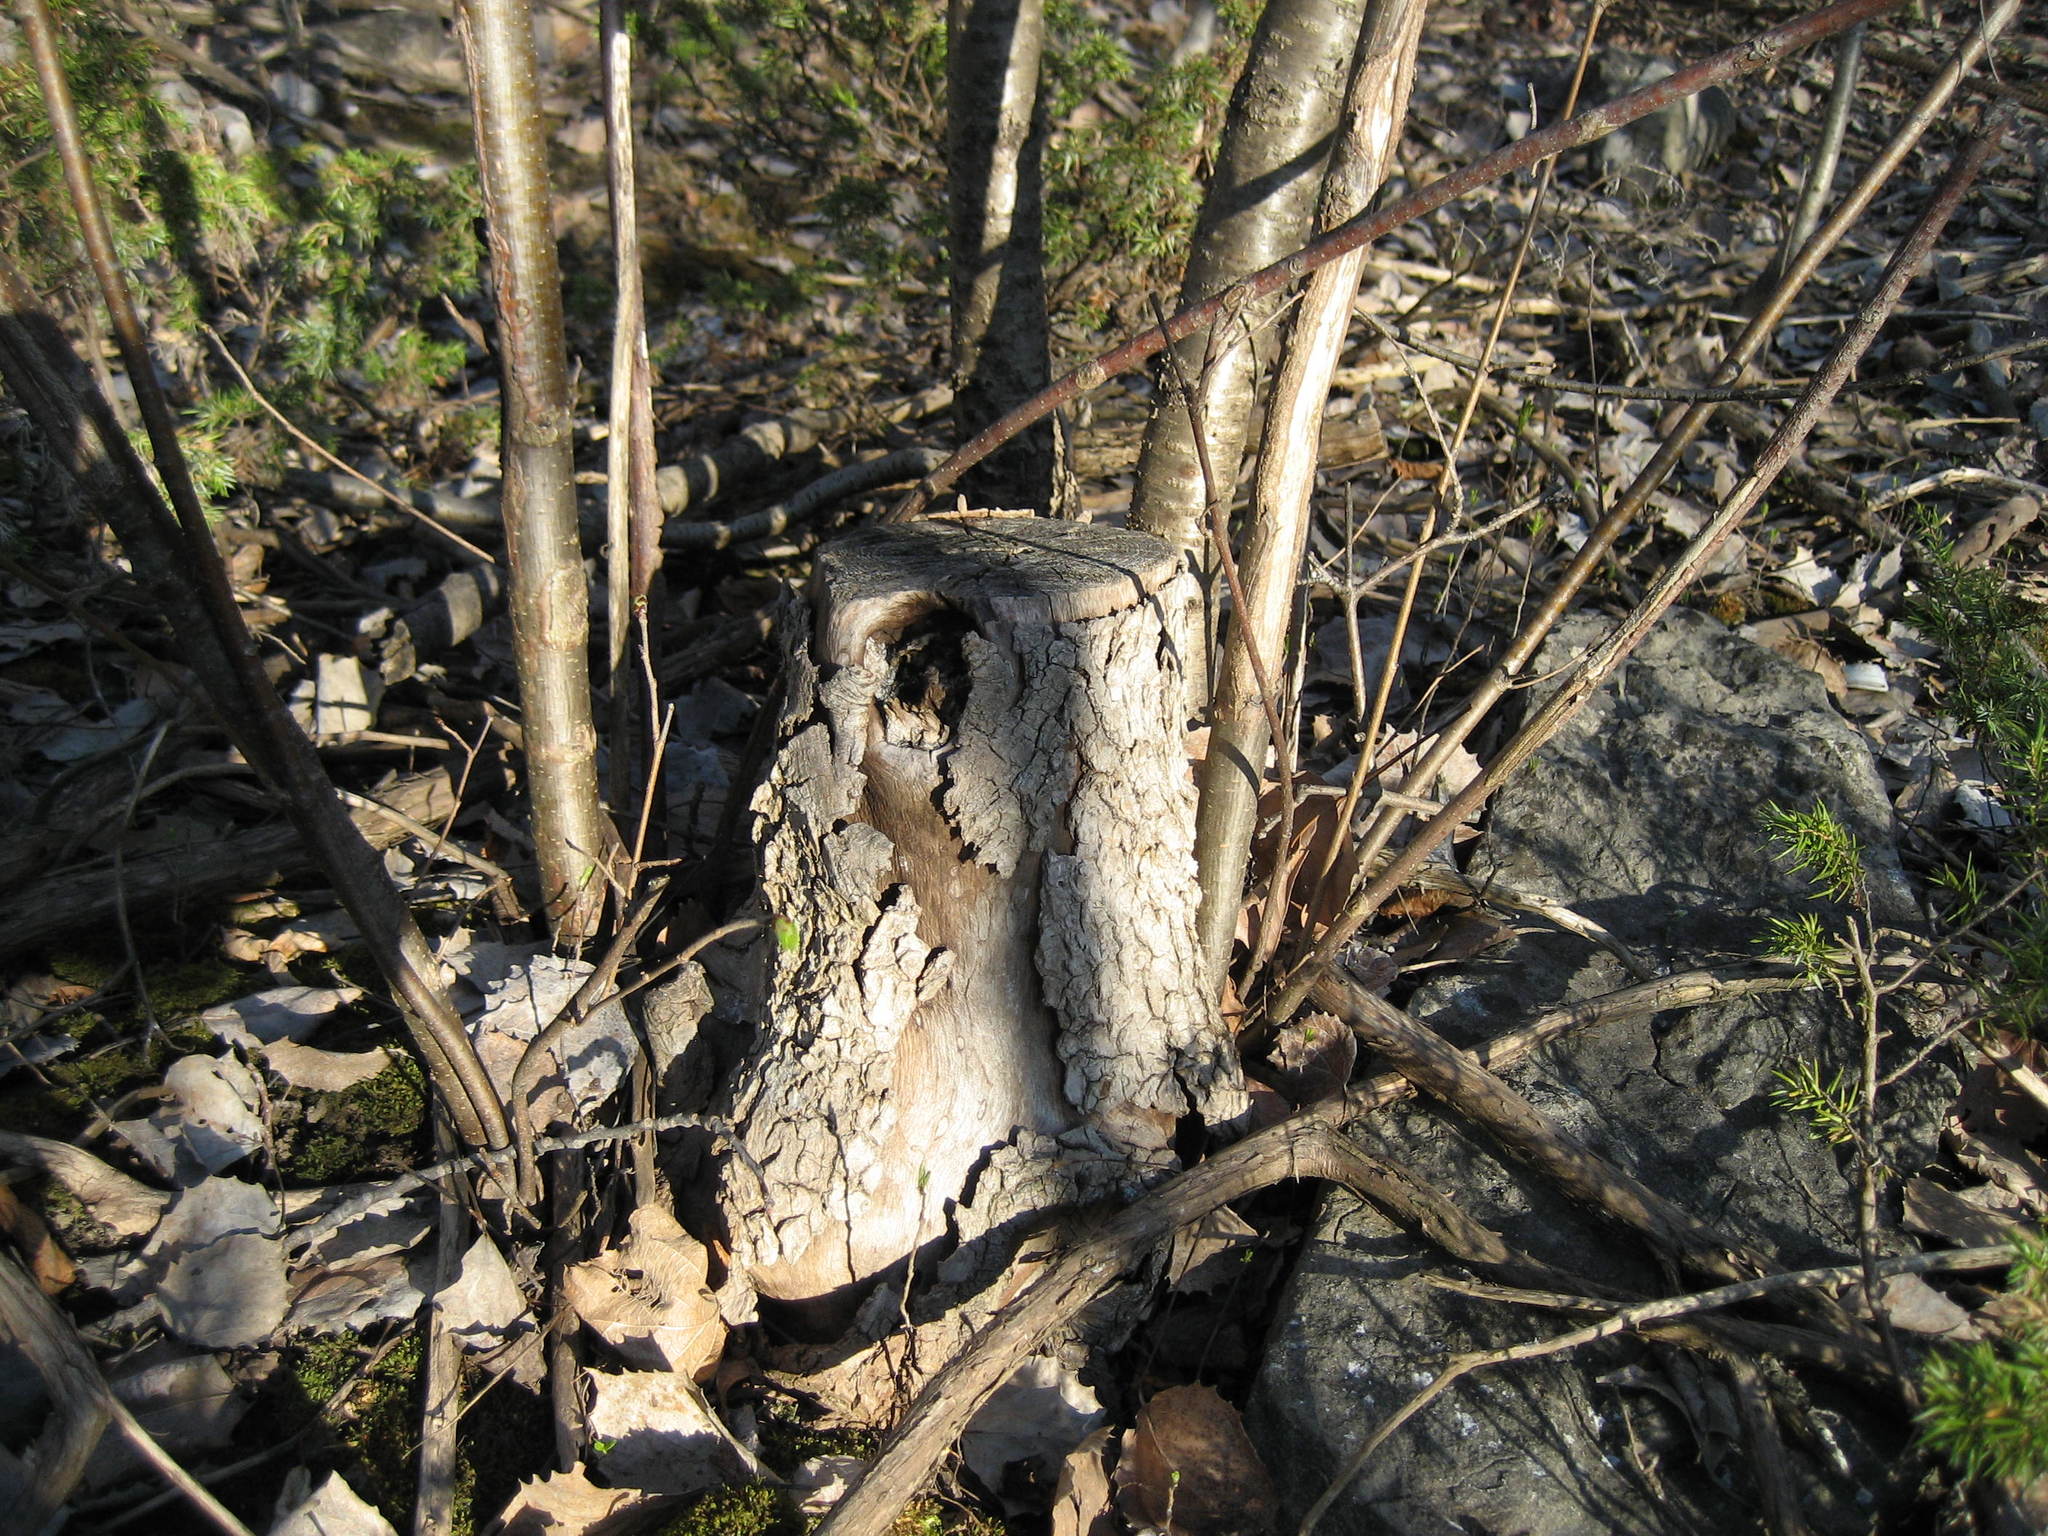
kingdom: Plantae
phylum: Tracheophyta
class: Magnoliopsida
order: Rosales
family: Ulmaceae
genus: Ulmus
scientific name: Ulmus rubra
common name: Slippery elm
